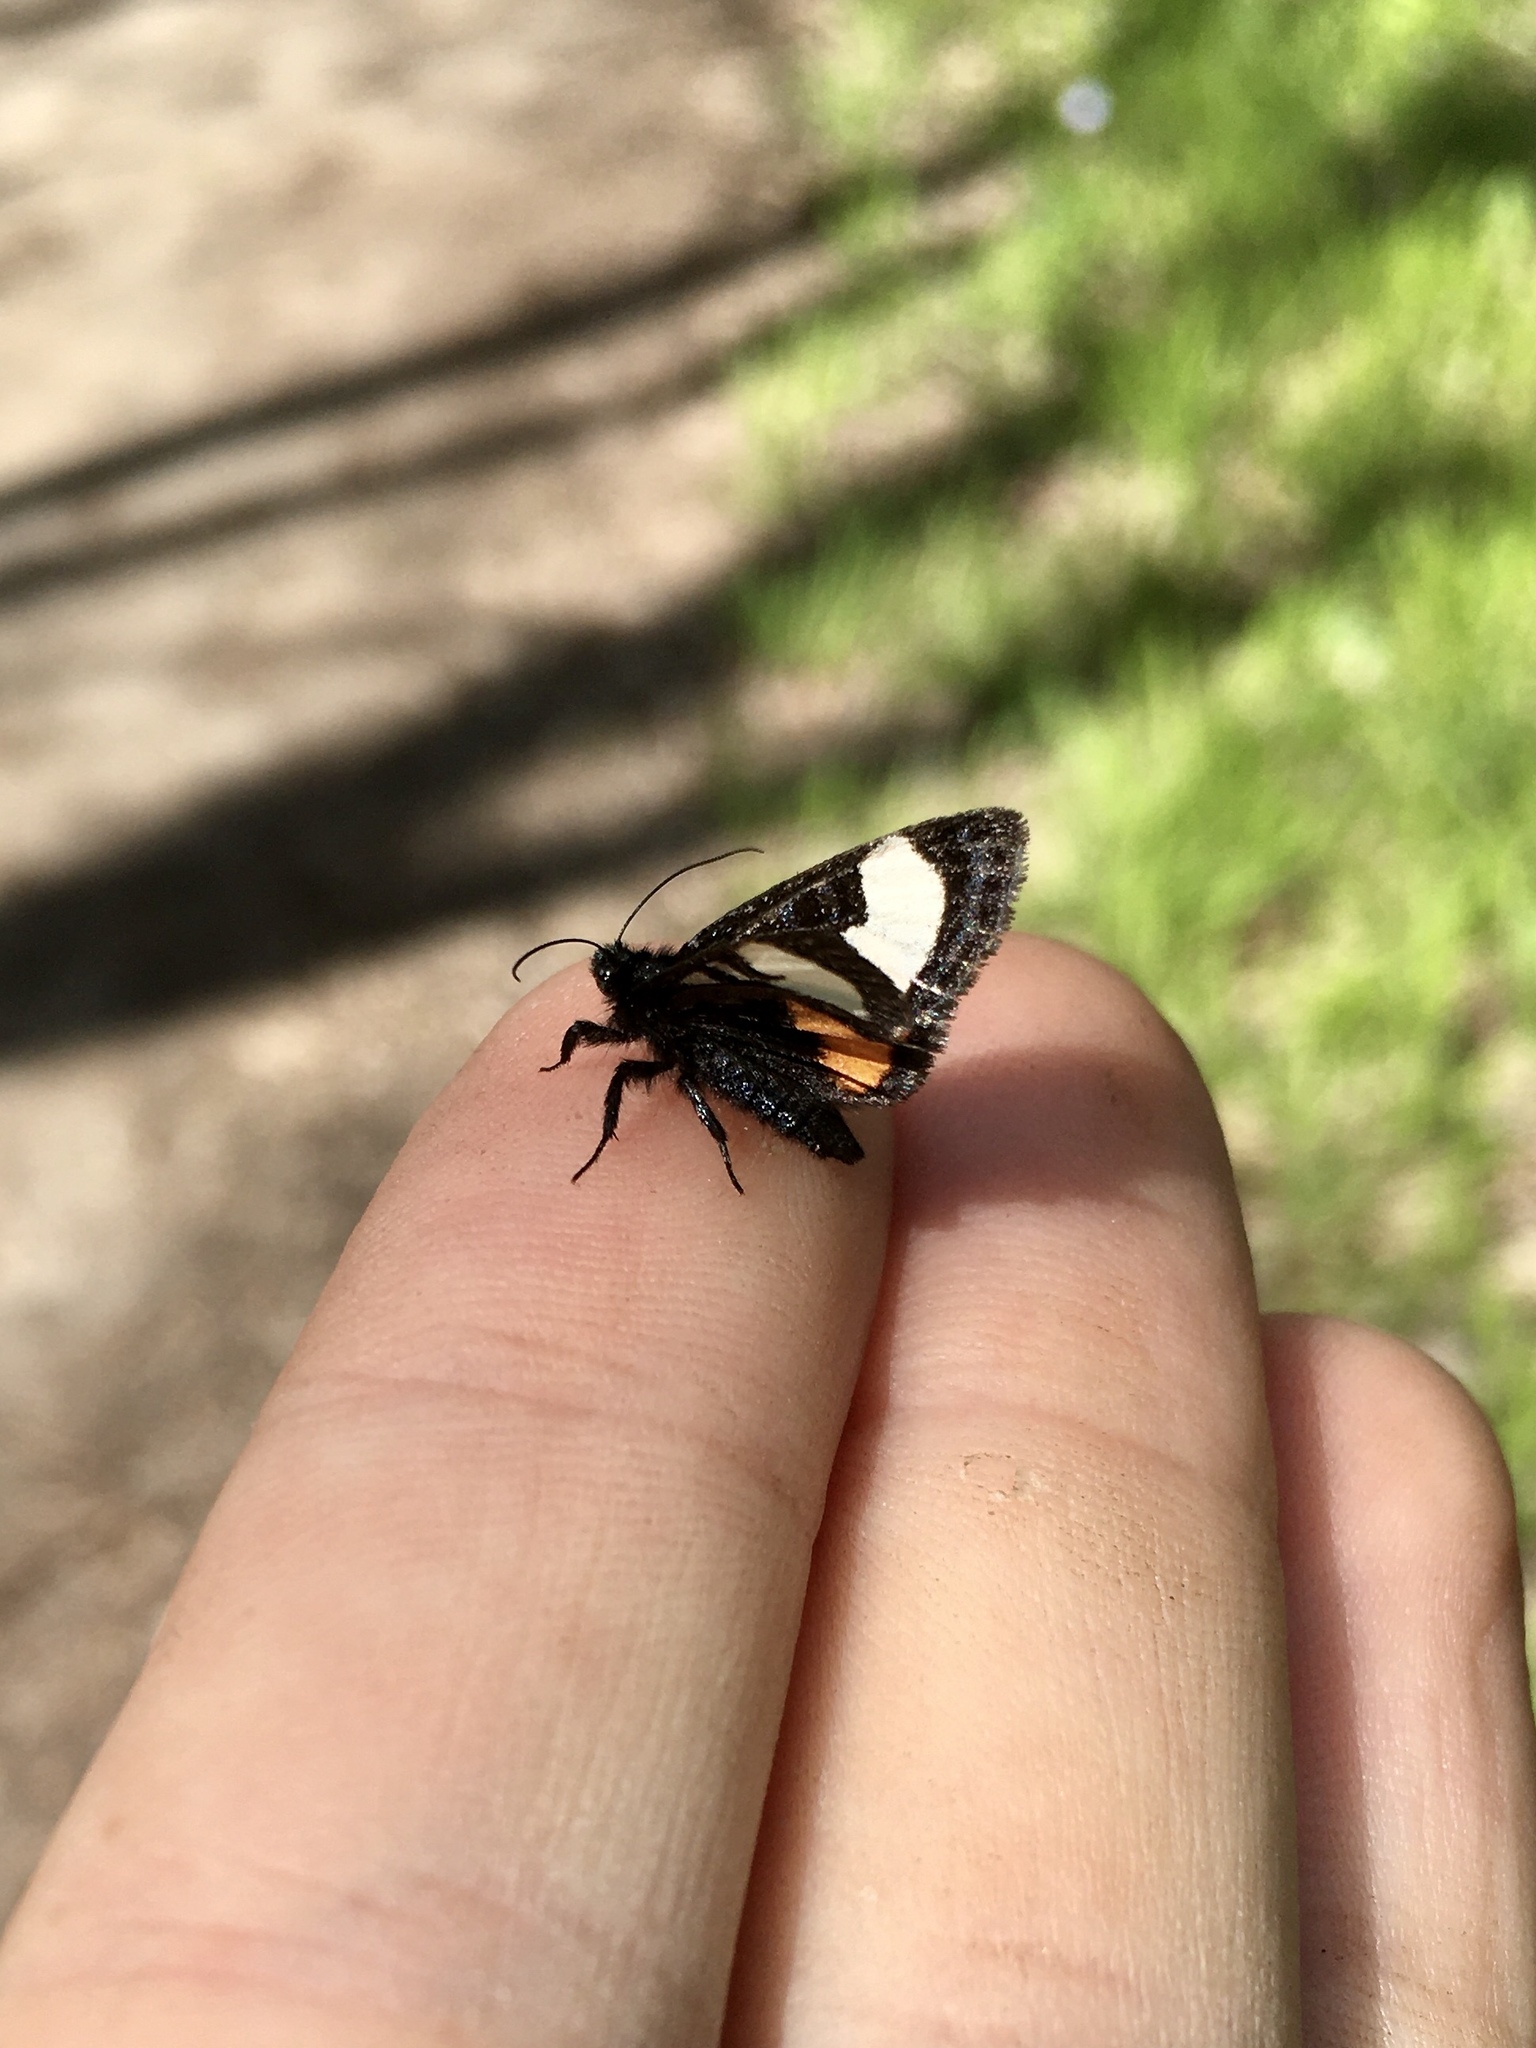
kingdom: Animalia
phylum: Arthropoda
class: Insecta
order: Lepidoptera
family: Noctuidae
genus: Psychomorpha
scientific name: Psychomorpha epimenis
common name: Grapevine epimenis moth
